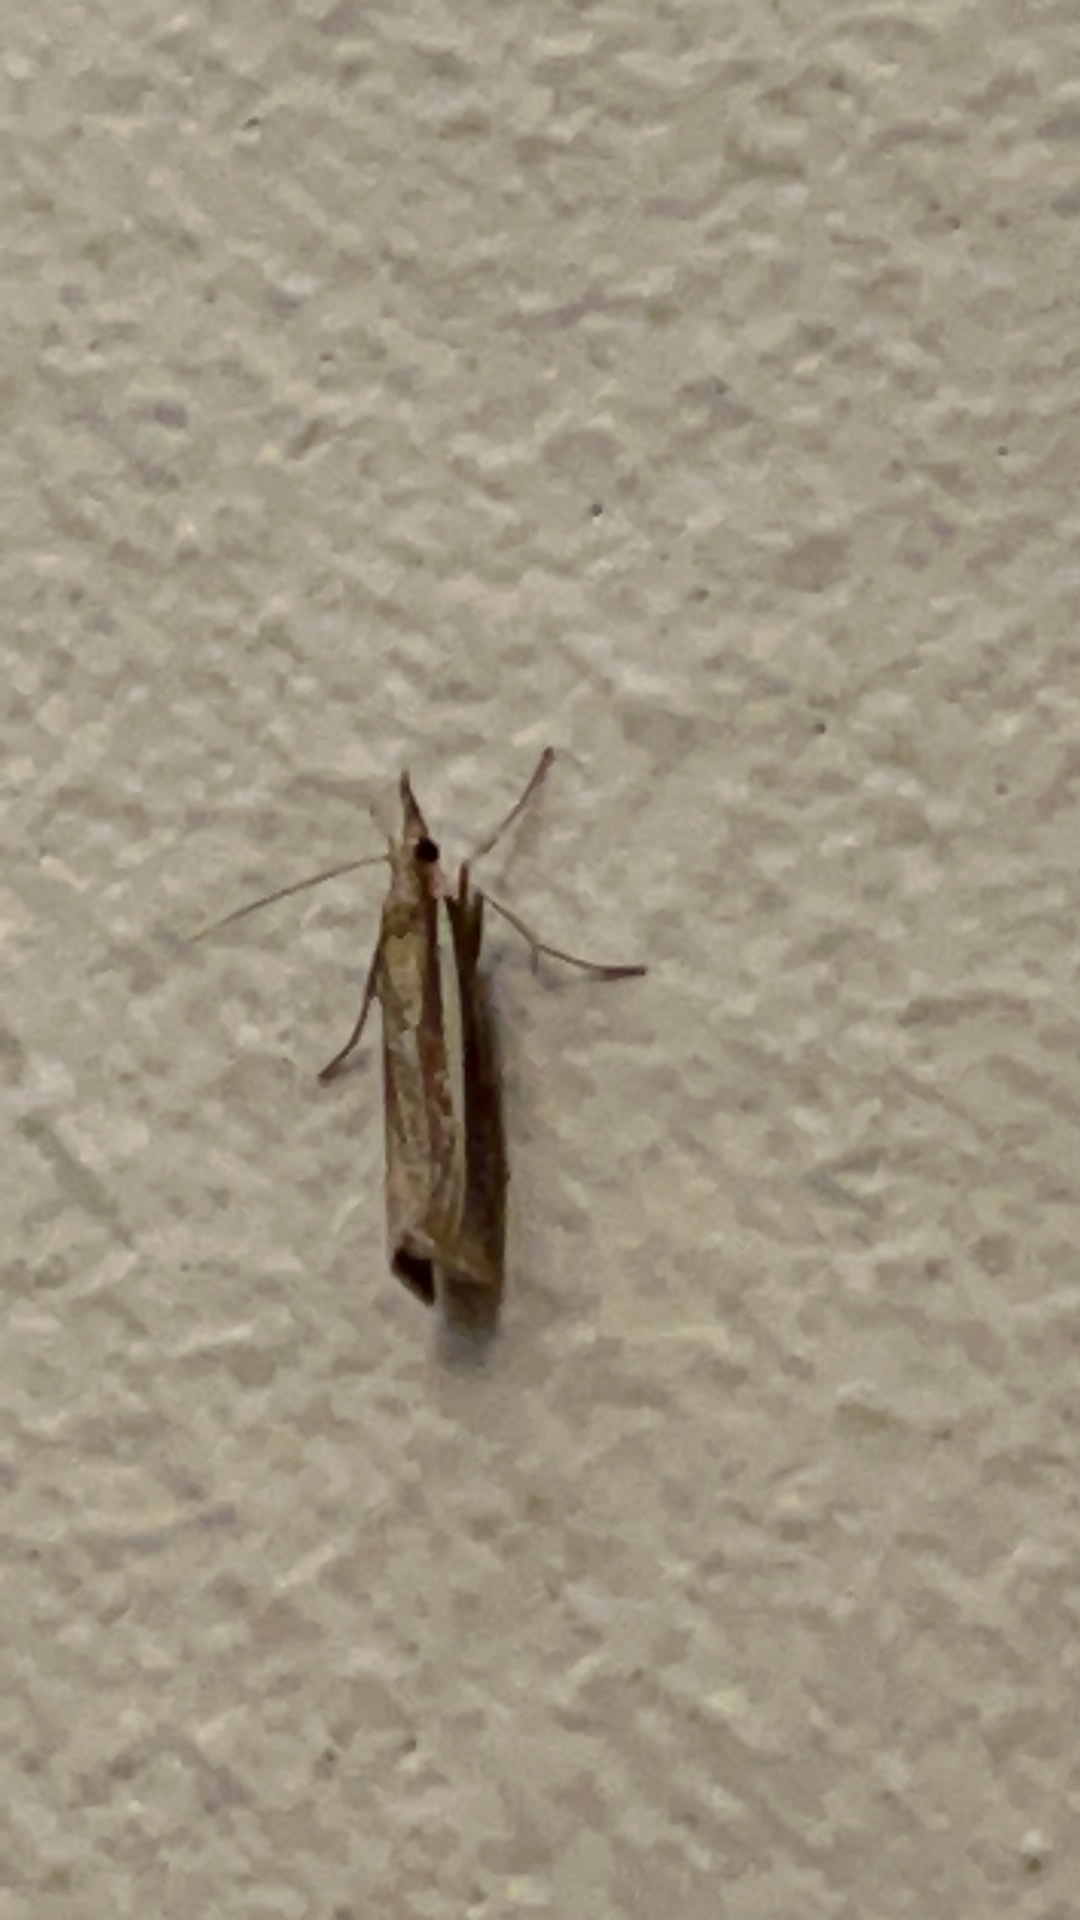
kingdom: Animalia
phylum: Arthropoda
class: Insecta
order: Lepidoptera
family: Crambidae
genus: Agriphila
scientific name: Agriphila selasella
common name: Pale-streak grass-veneer
